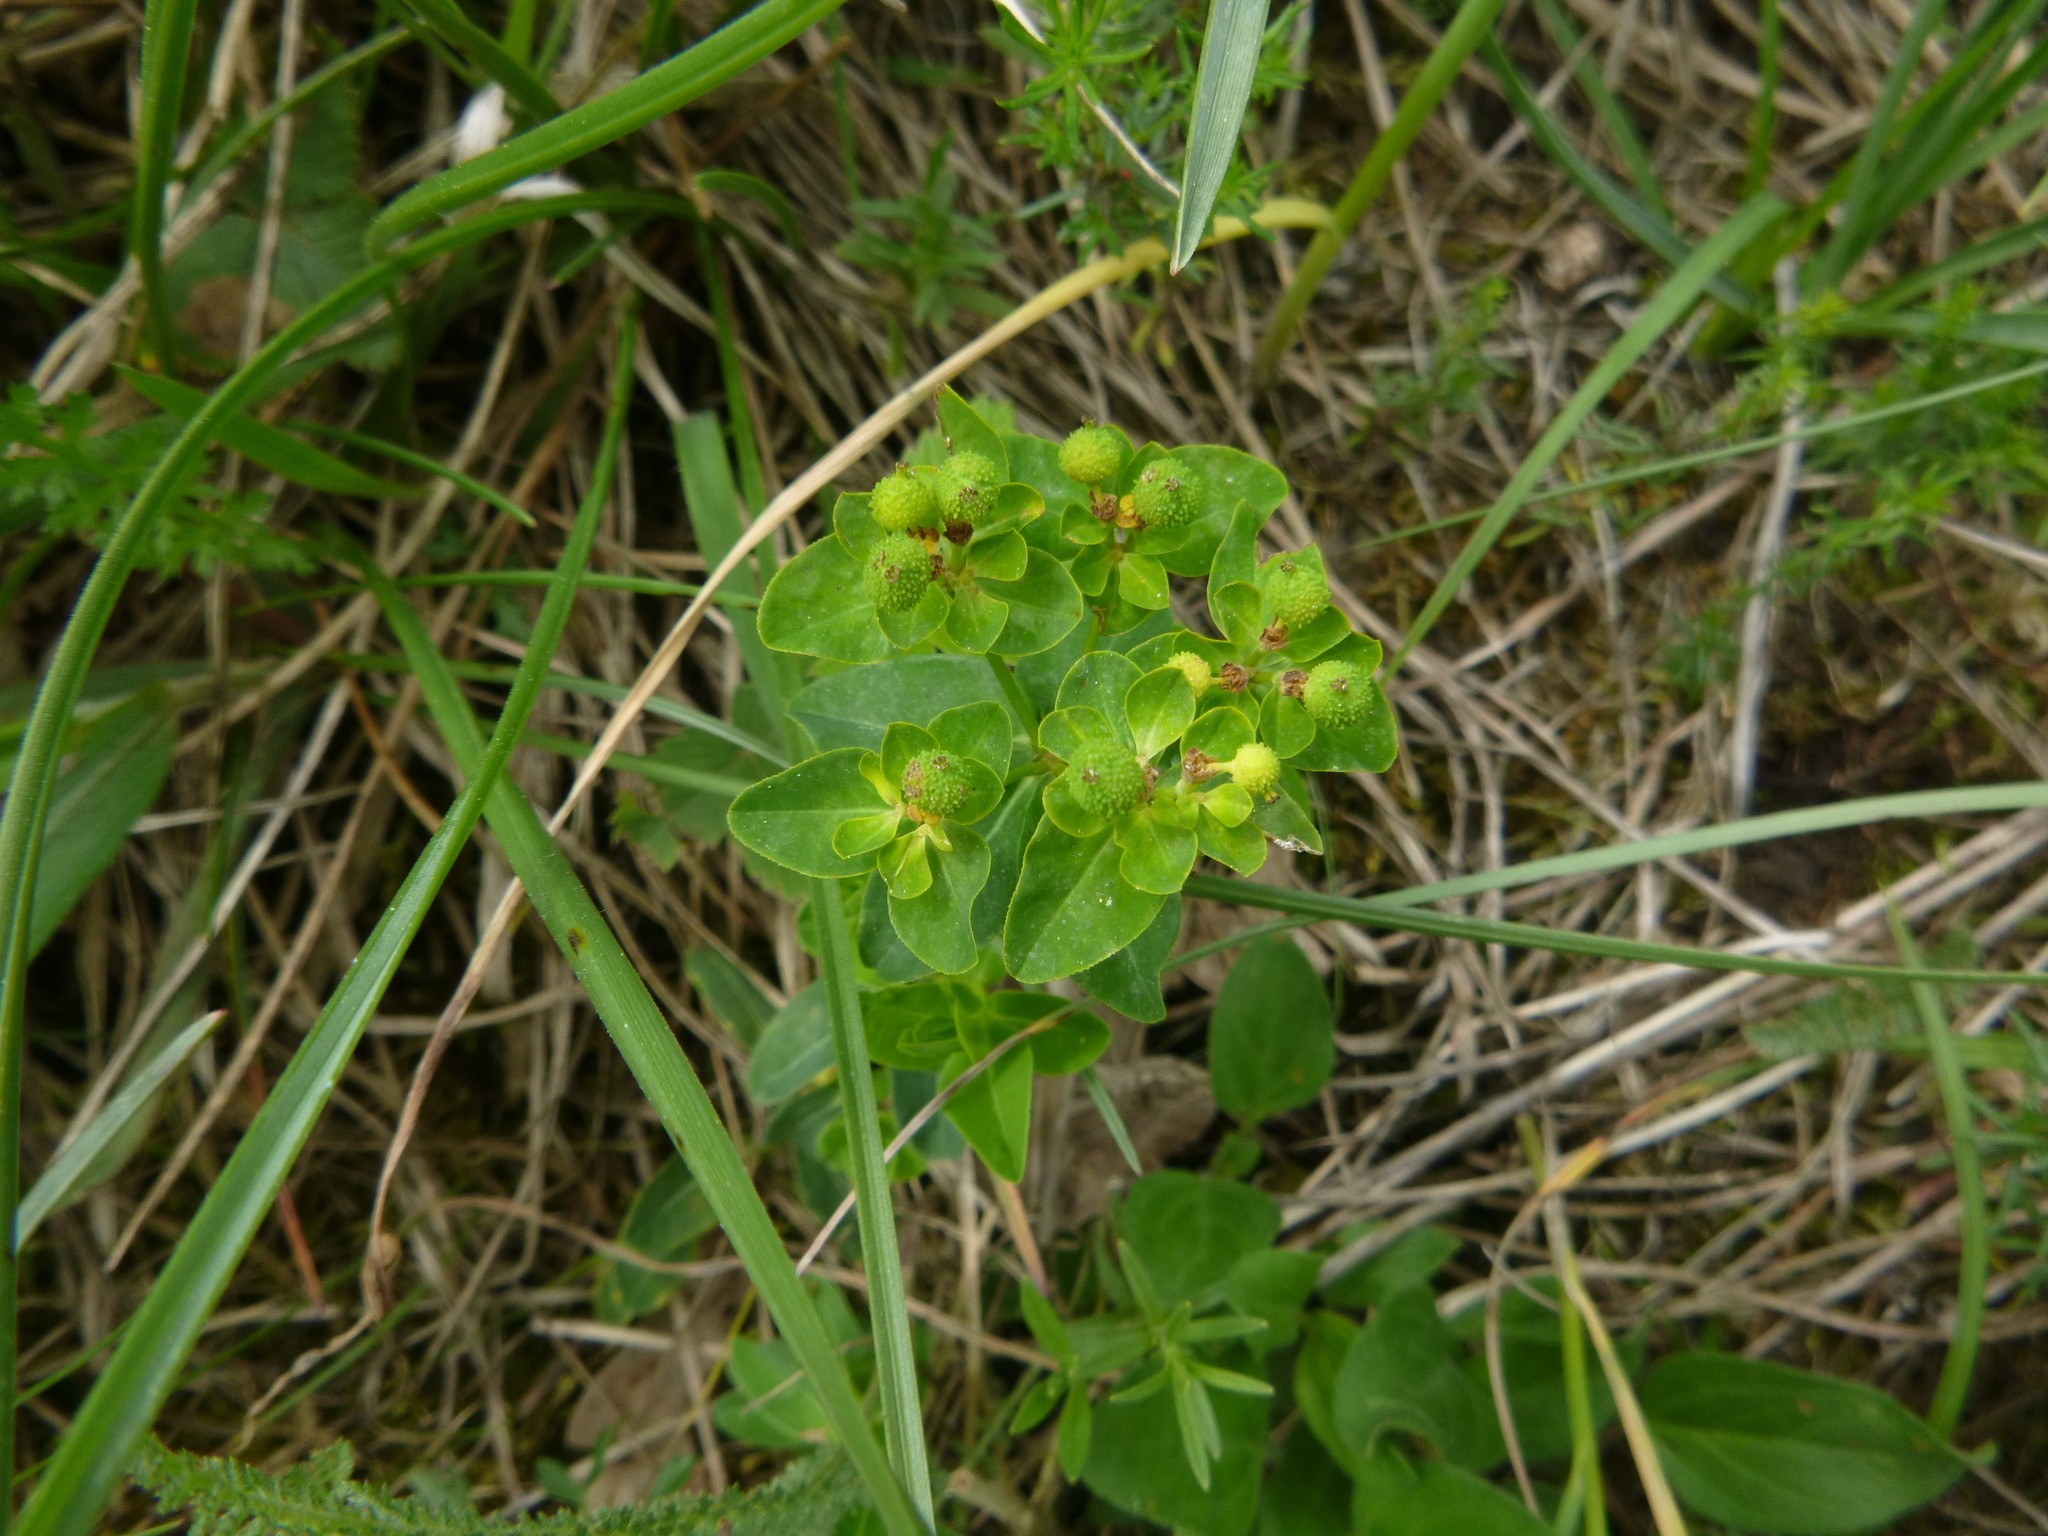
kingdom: Plantae
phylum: Tracheophyta
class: Magnoliopsida
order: Malpighiales
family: Euphorbiaceae
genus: Euphorbia
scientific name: Euphorbia verrucosa
